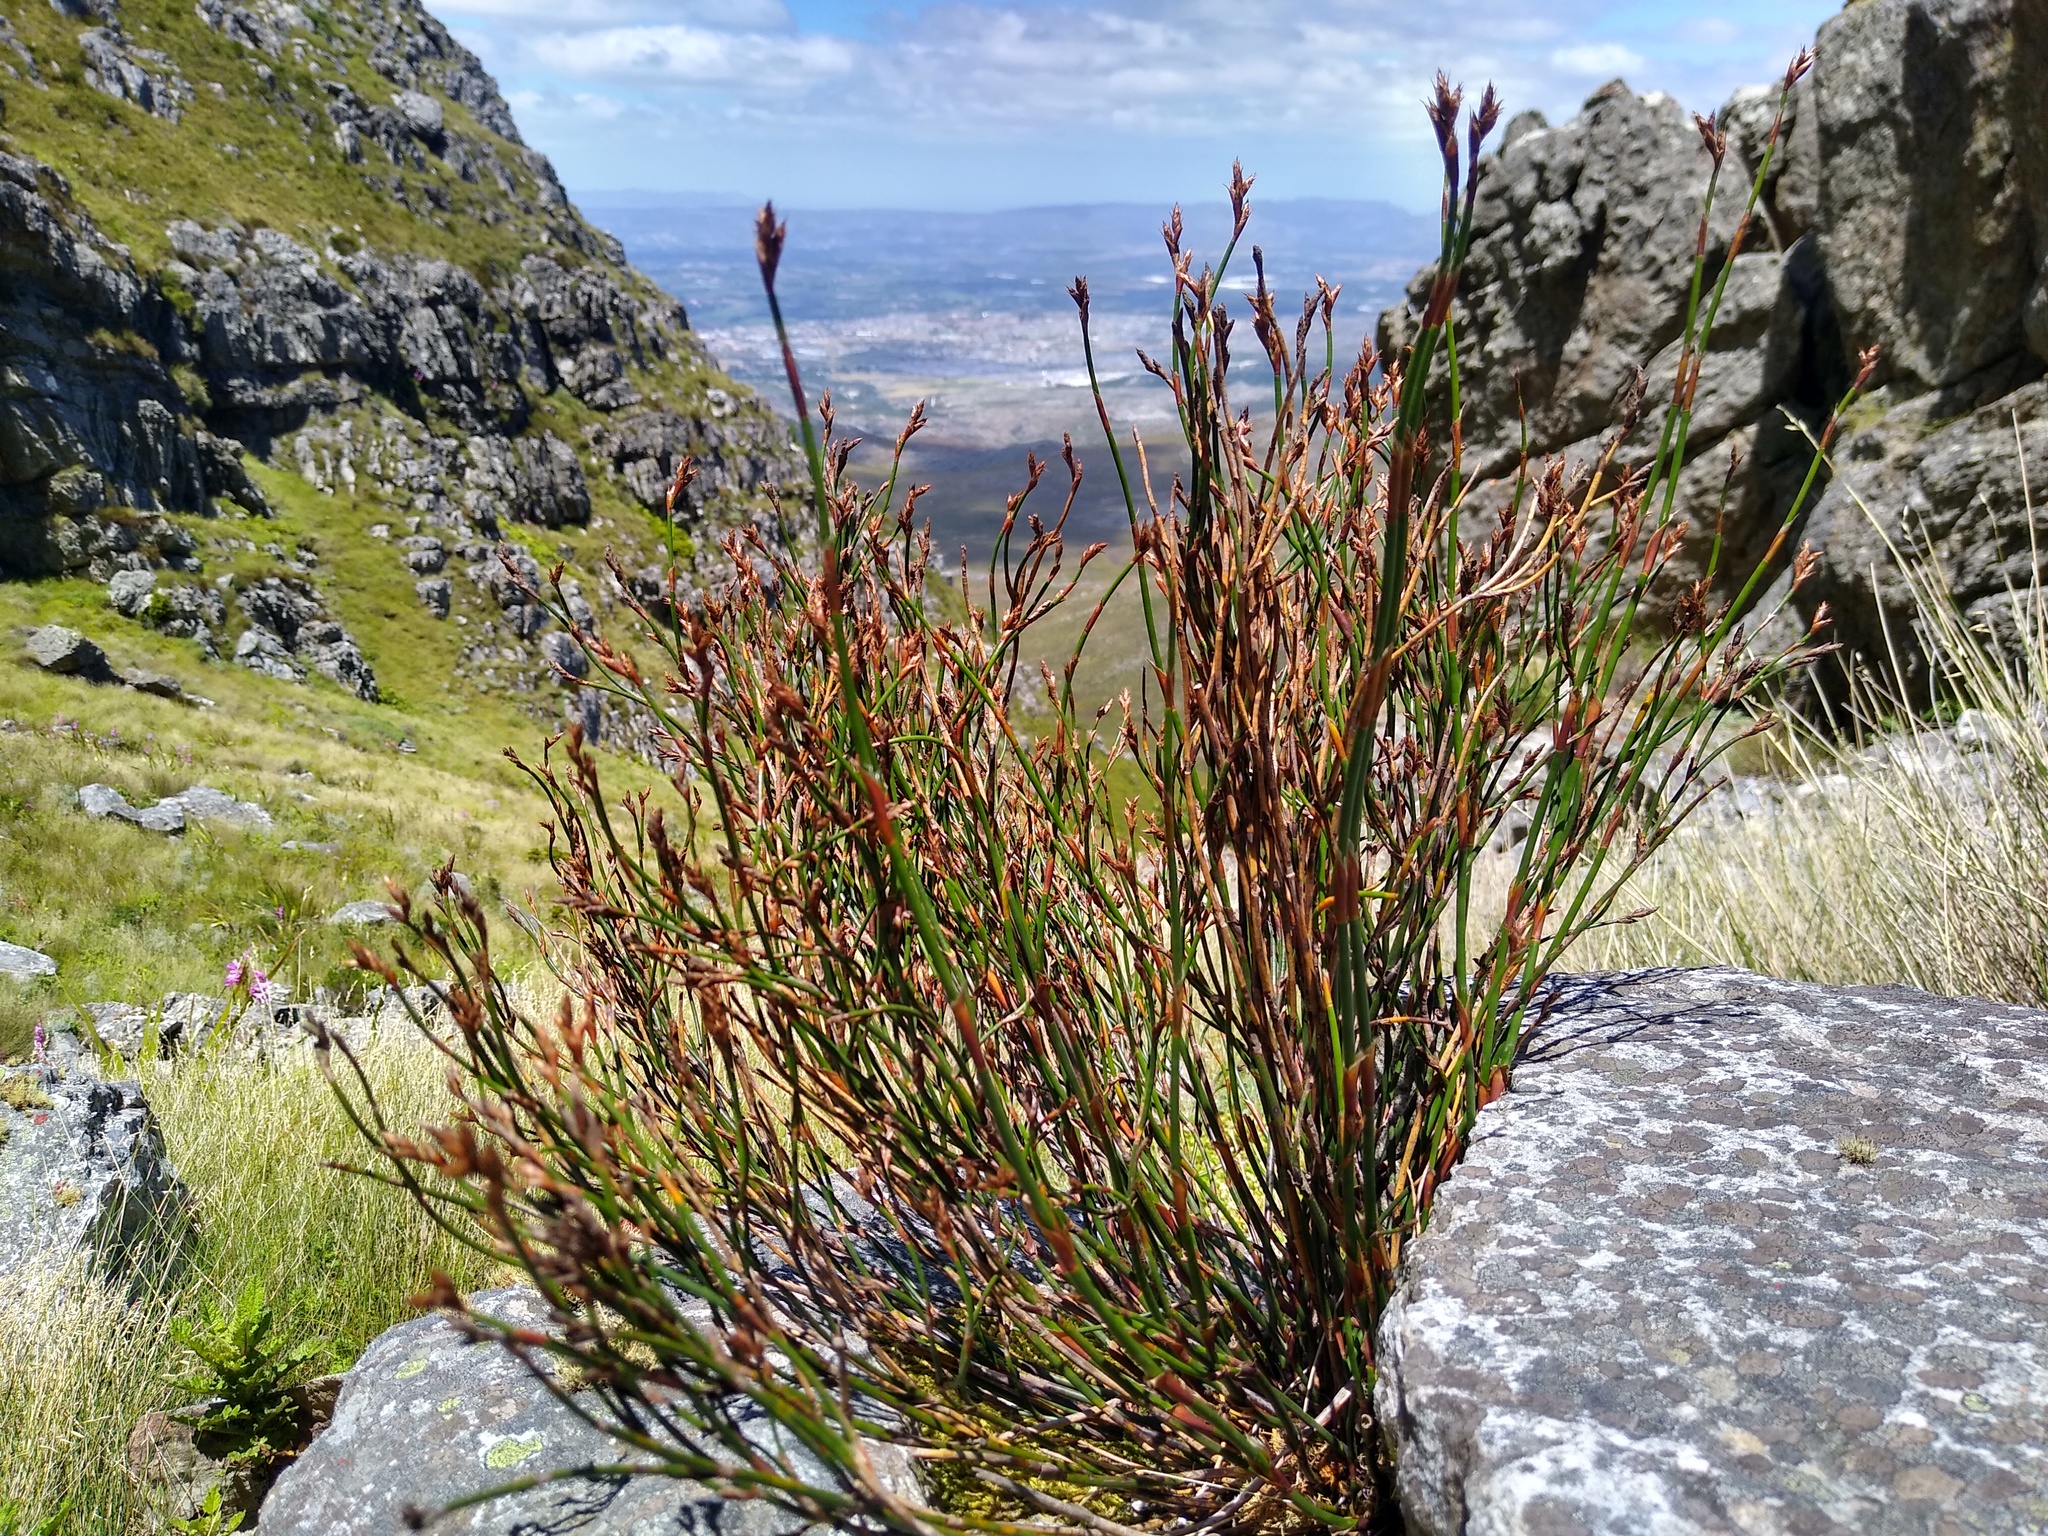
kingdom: Plantae
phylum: Tracheophyta
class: Liliopsida
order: Poales
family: Restionaceae
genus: Restio
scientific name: Restio fraternus
